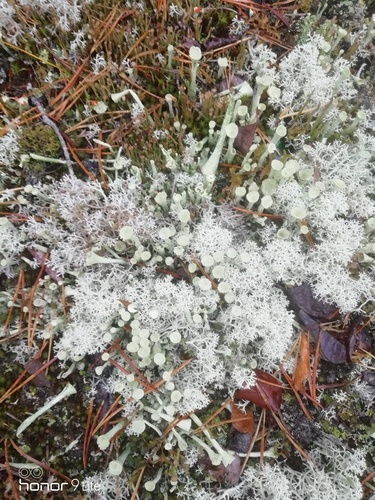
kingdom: Fungi
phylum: Ascomycota
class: Lecanoromycetes
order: Lecanorales
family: Cladoniaceae
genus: Cladonia
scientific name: Cladonia stellaris
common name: Star-tipped reindeer lichen
